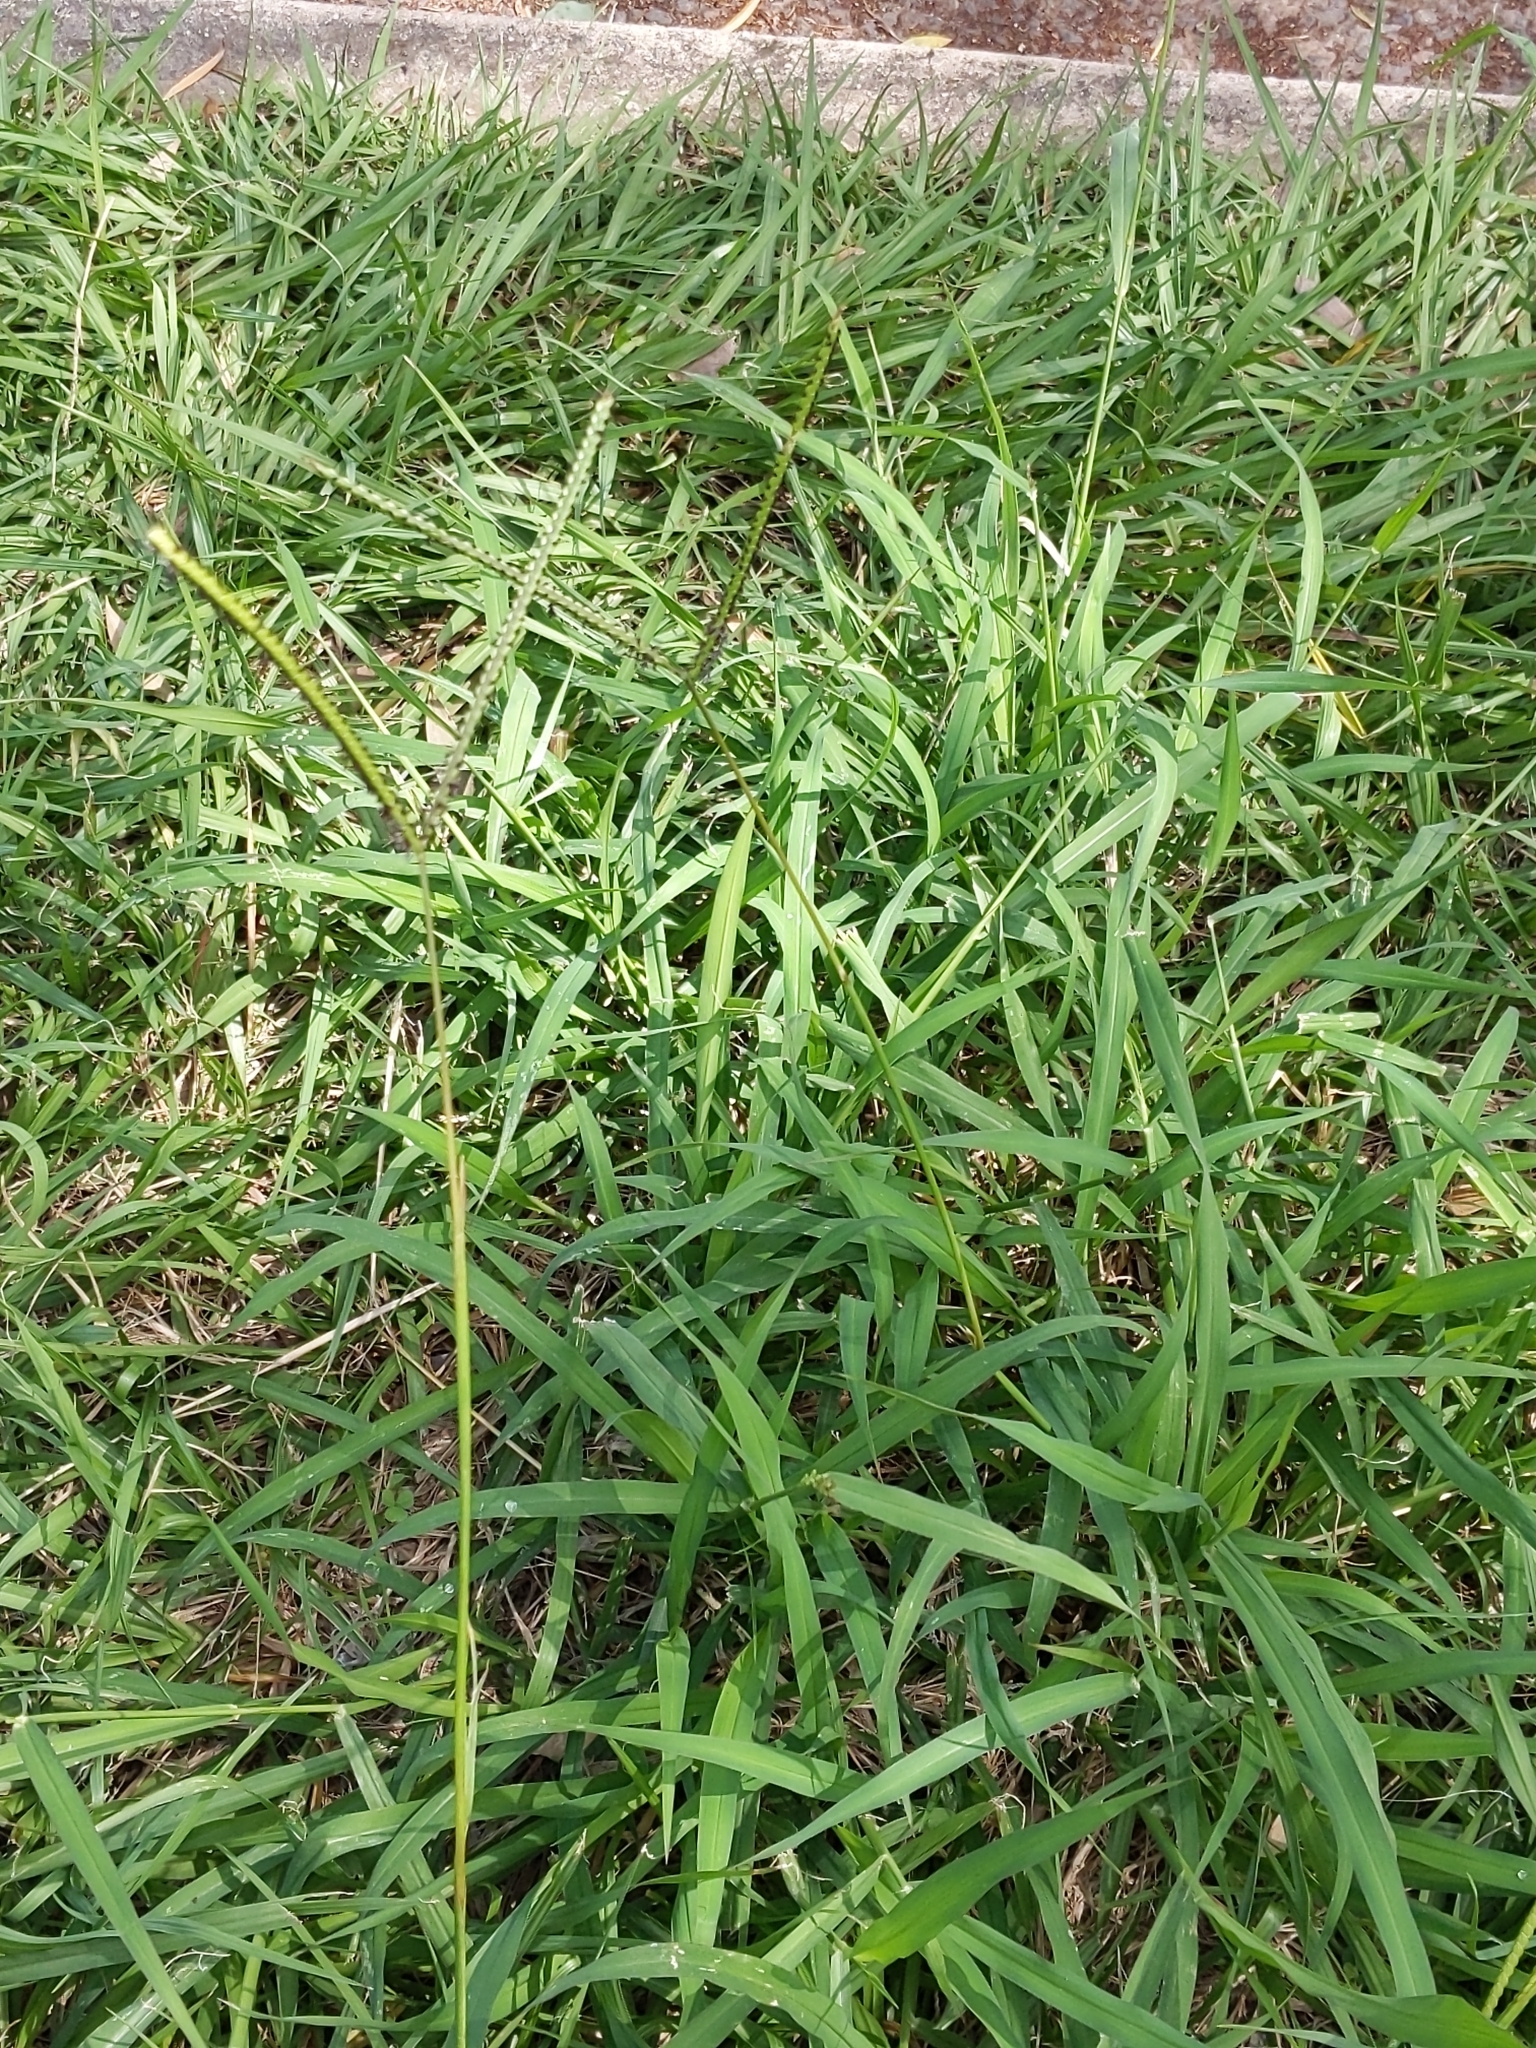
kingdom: Plantae
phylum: Tracheophyta
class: Liliopsida
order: Poales
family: Poaceae
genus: Paspalum
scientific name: Paspalum notatum
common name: Bahiagrass
